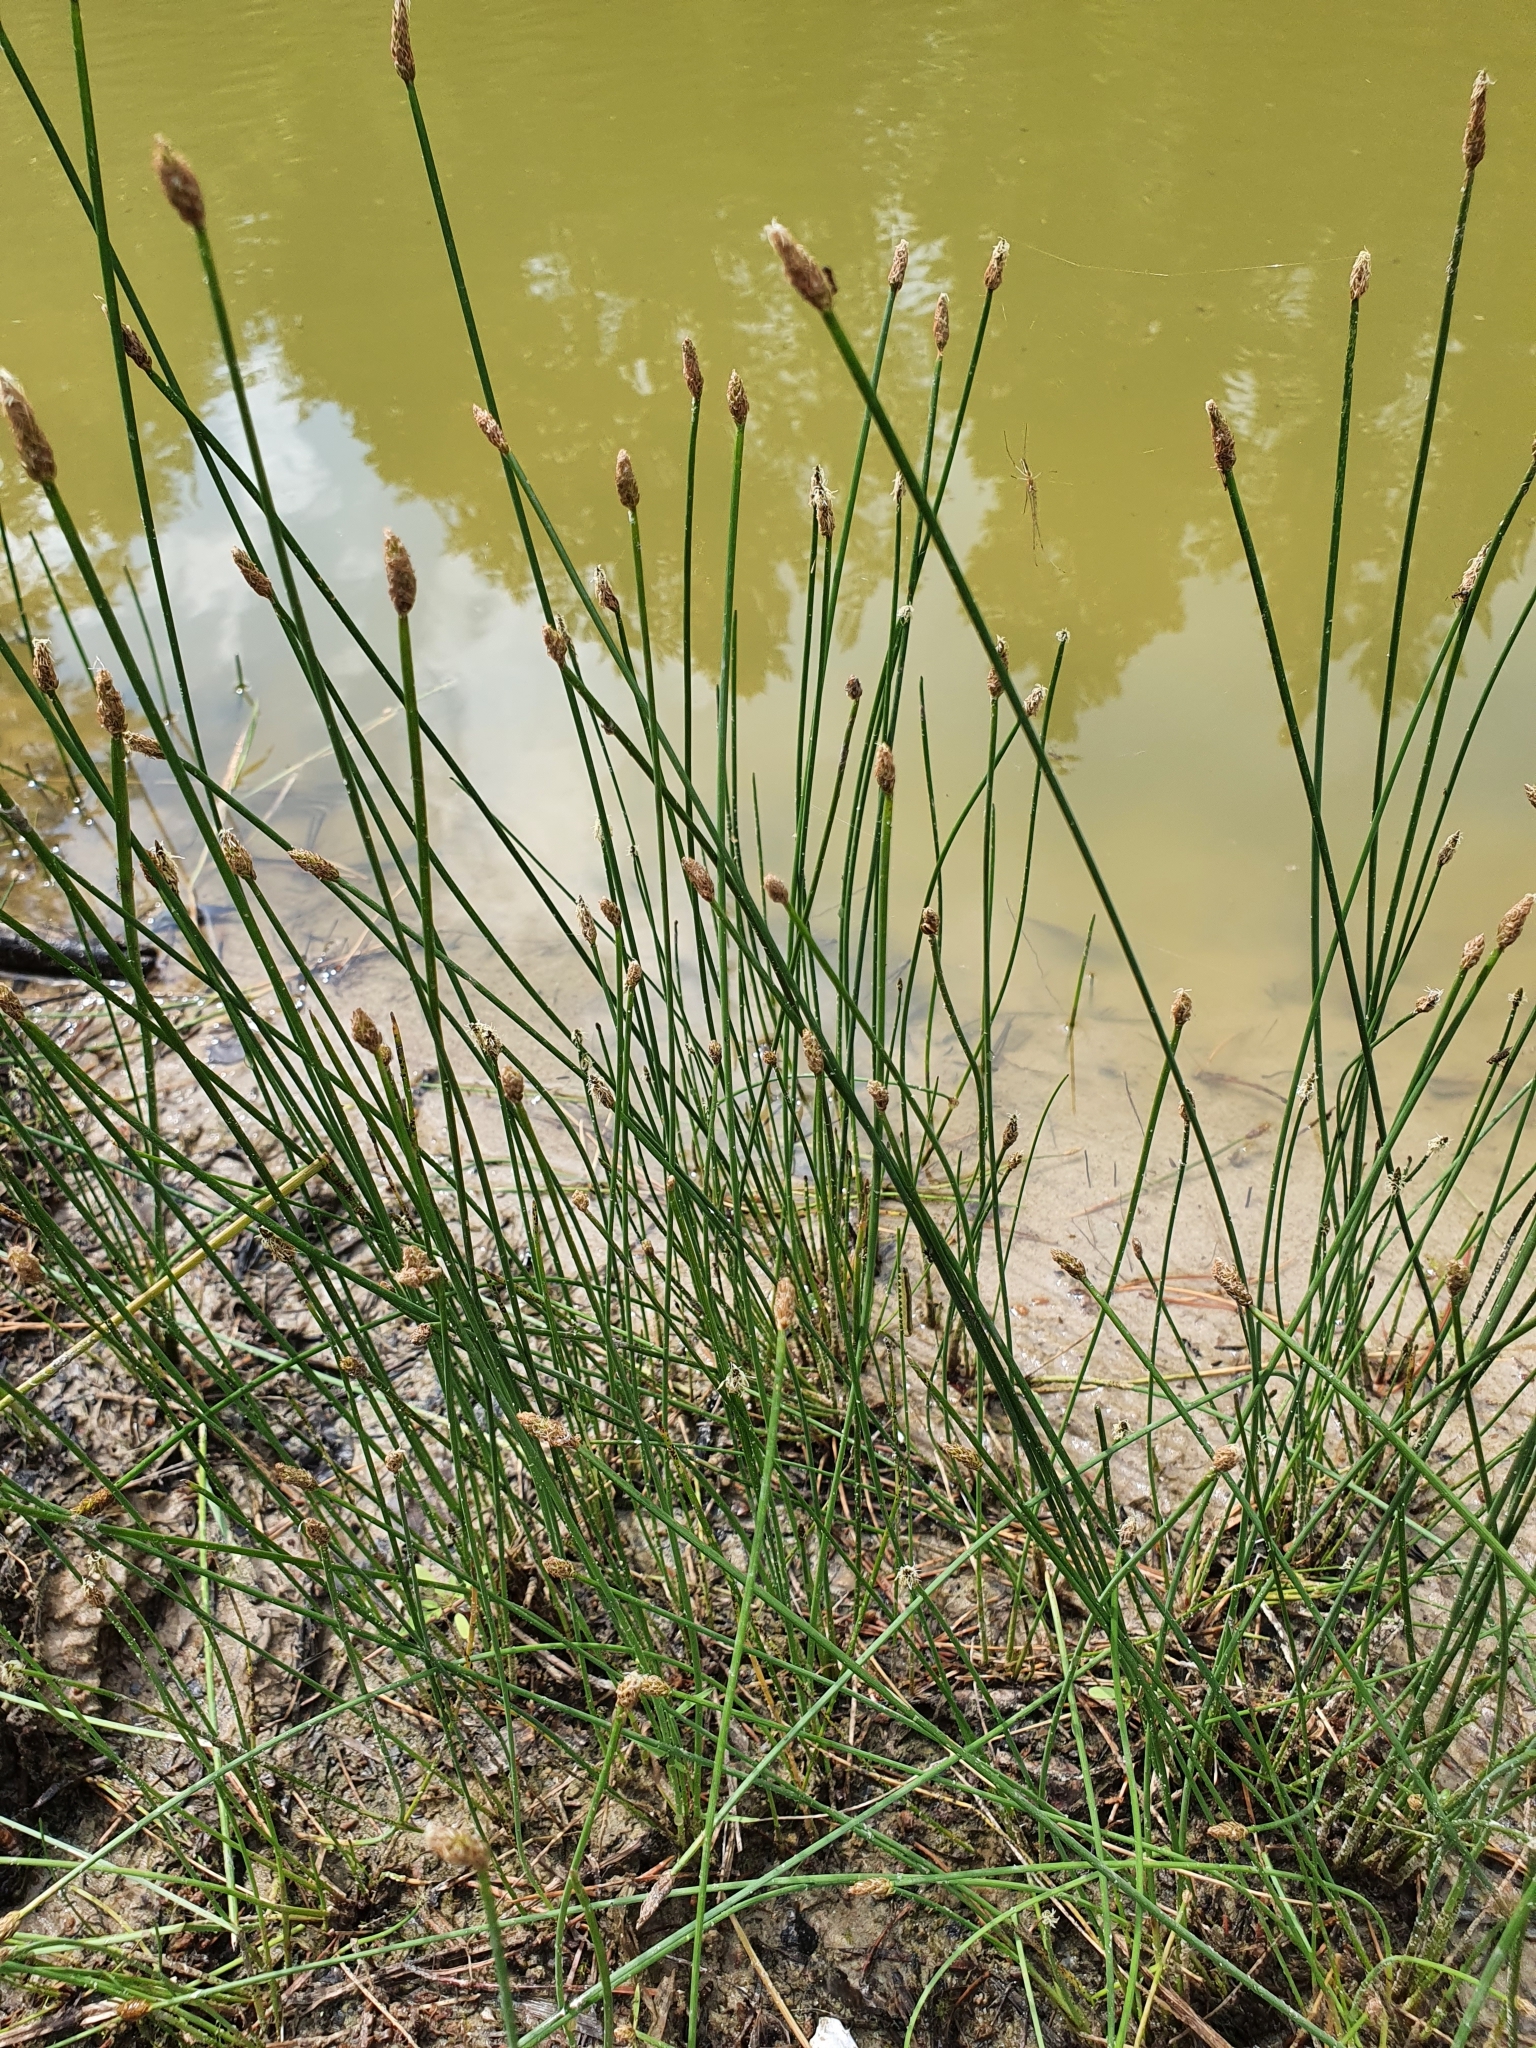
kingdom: Plantae
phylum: Tracheophyta
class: Liliopsida
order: Poales
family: Cyperaceae
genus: Eleocharis
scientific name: Eleocharis palustris
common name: Common spike-rush
